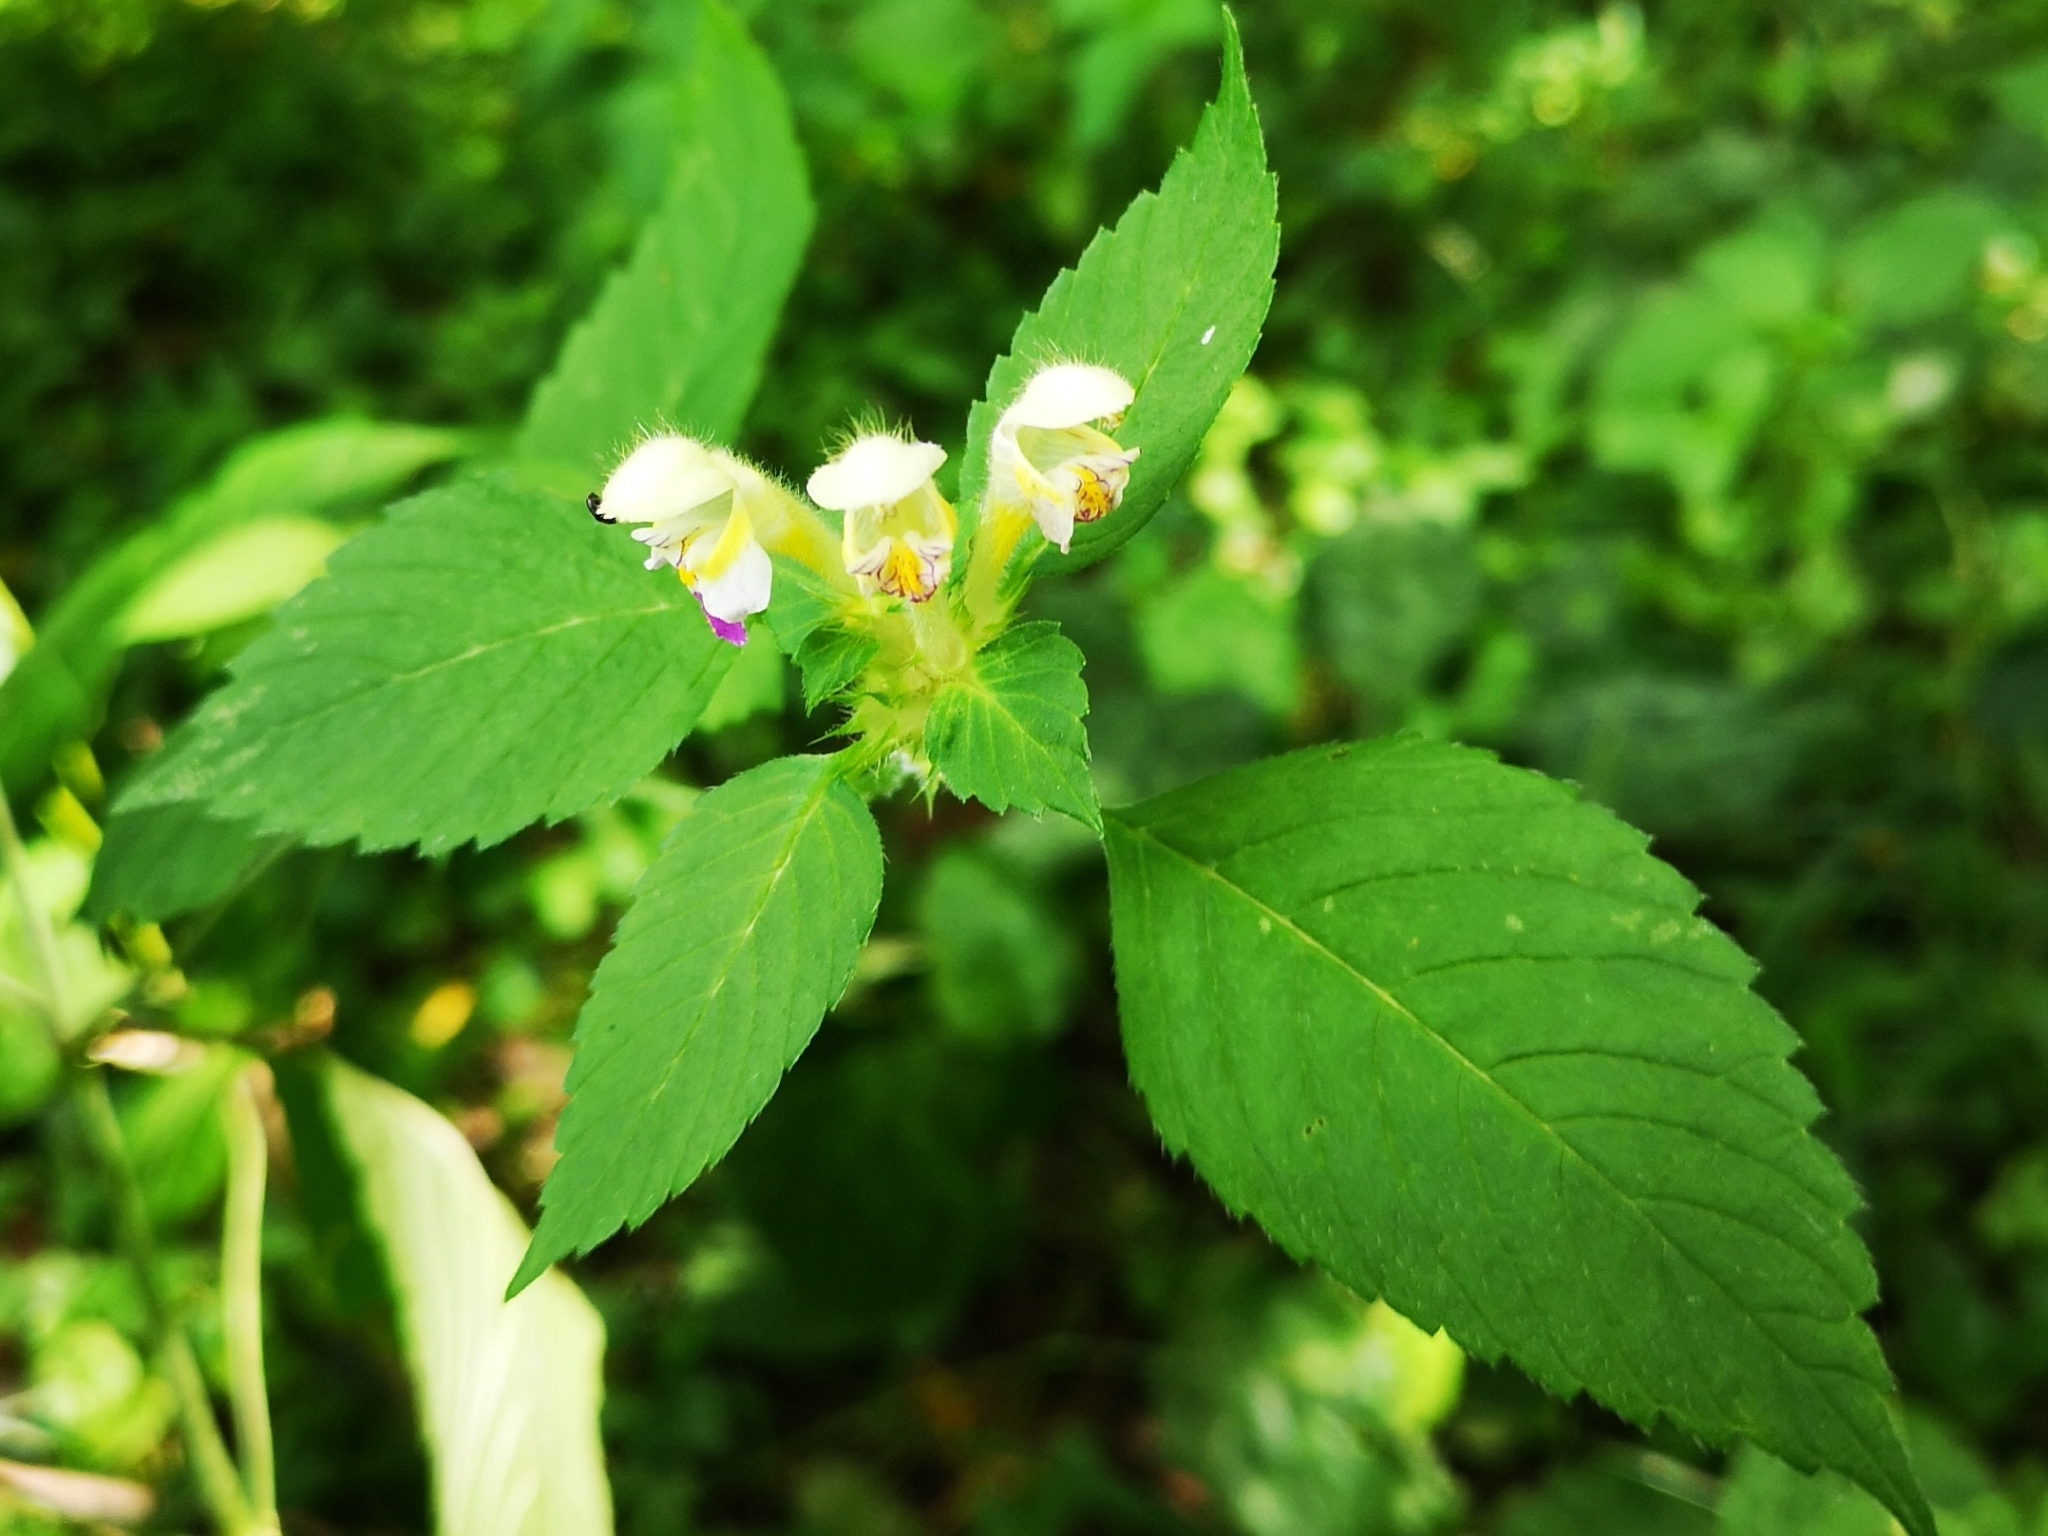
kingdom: Plantae
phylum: Tracheophyta
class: Magnoliopsida
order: Lamiales
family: Lamiaceae
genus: Galeopsis
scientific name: Galeopsis speciosa
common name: Large-flowered hemp-nettle
